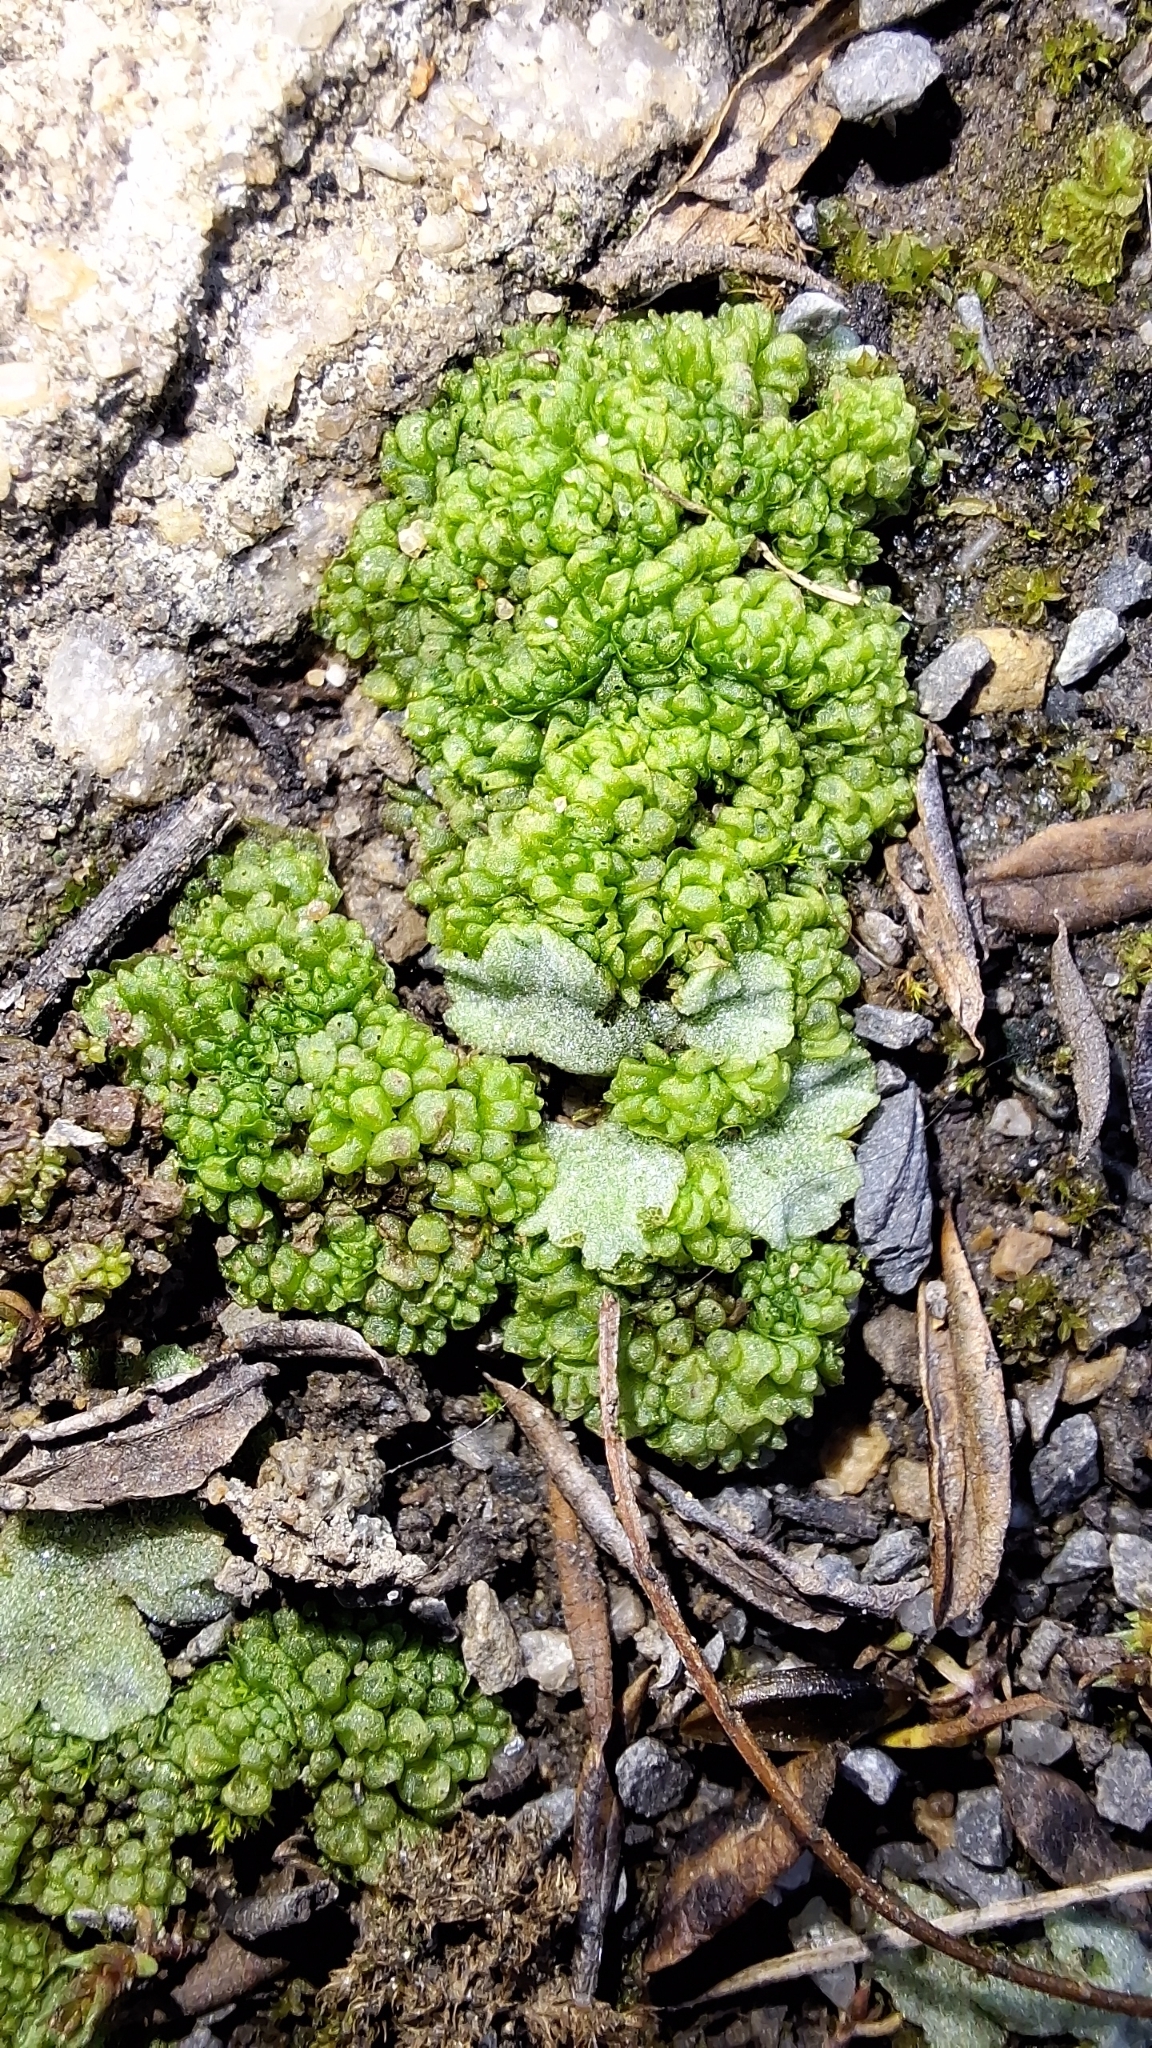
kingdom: Plantae
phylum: Marchantiophyta
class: Marchantiopsida
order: Sphaerocarpales
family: Sphaerocarpaceae
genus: Sphaerocarpos
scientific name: Sphaerocarpos texanus
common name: Texas balloonwort
